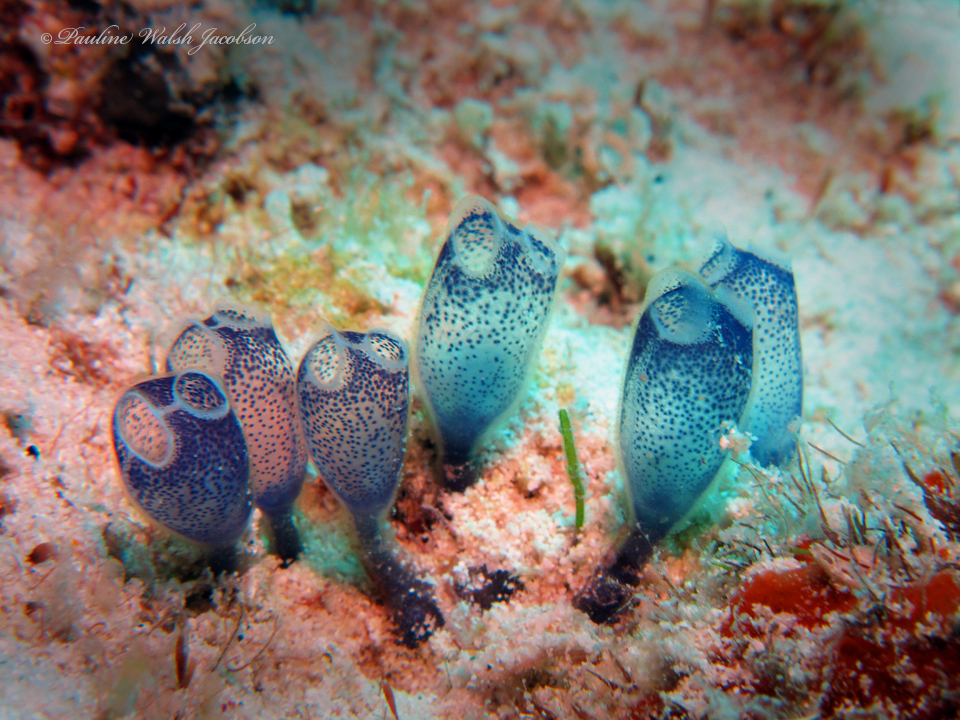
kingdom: Animalia
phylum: Chordata
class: Ascidiacea
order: Aplousobranchia
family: Clavelinidae
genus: Clavelina
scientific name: Clavelina puertosecensis
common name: Blue bell tunicate
